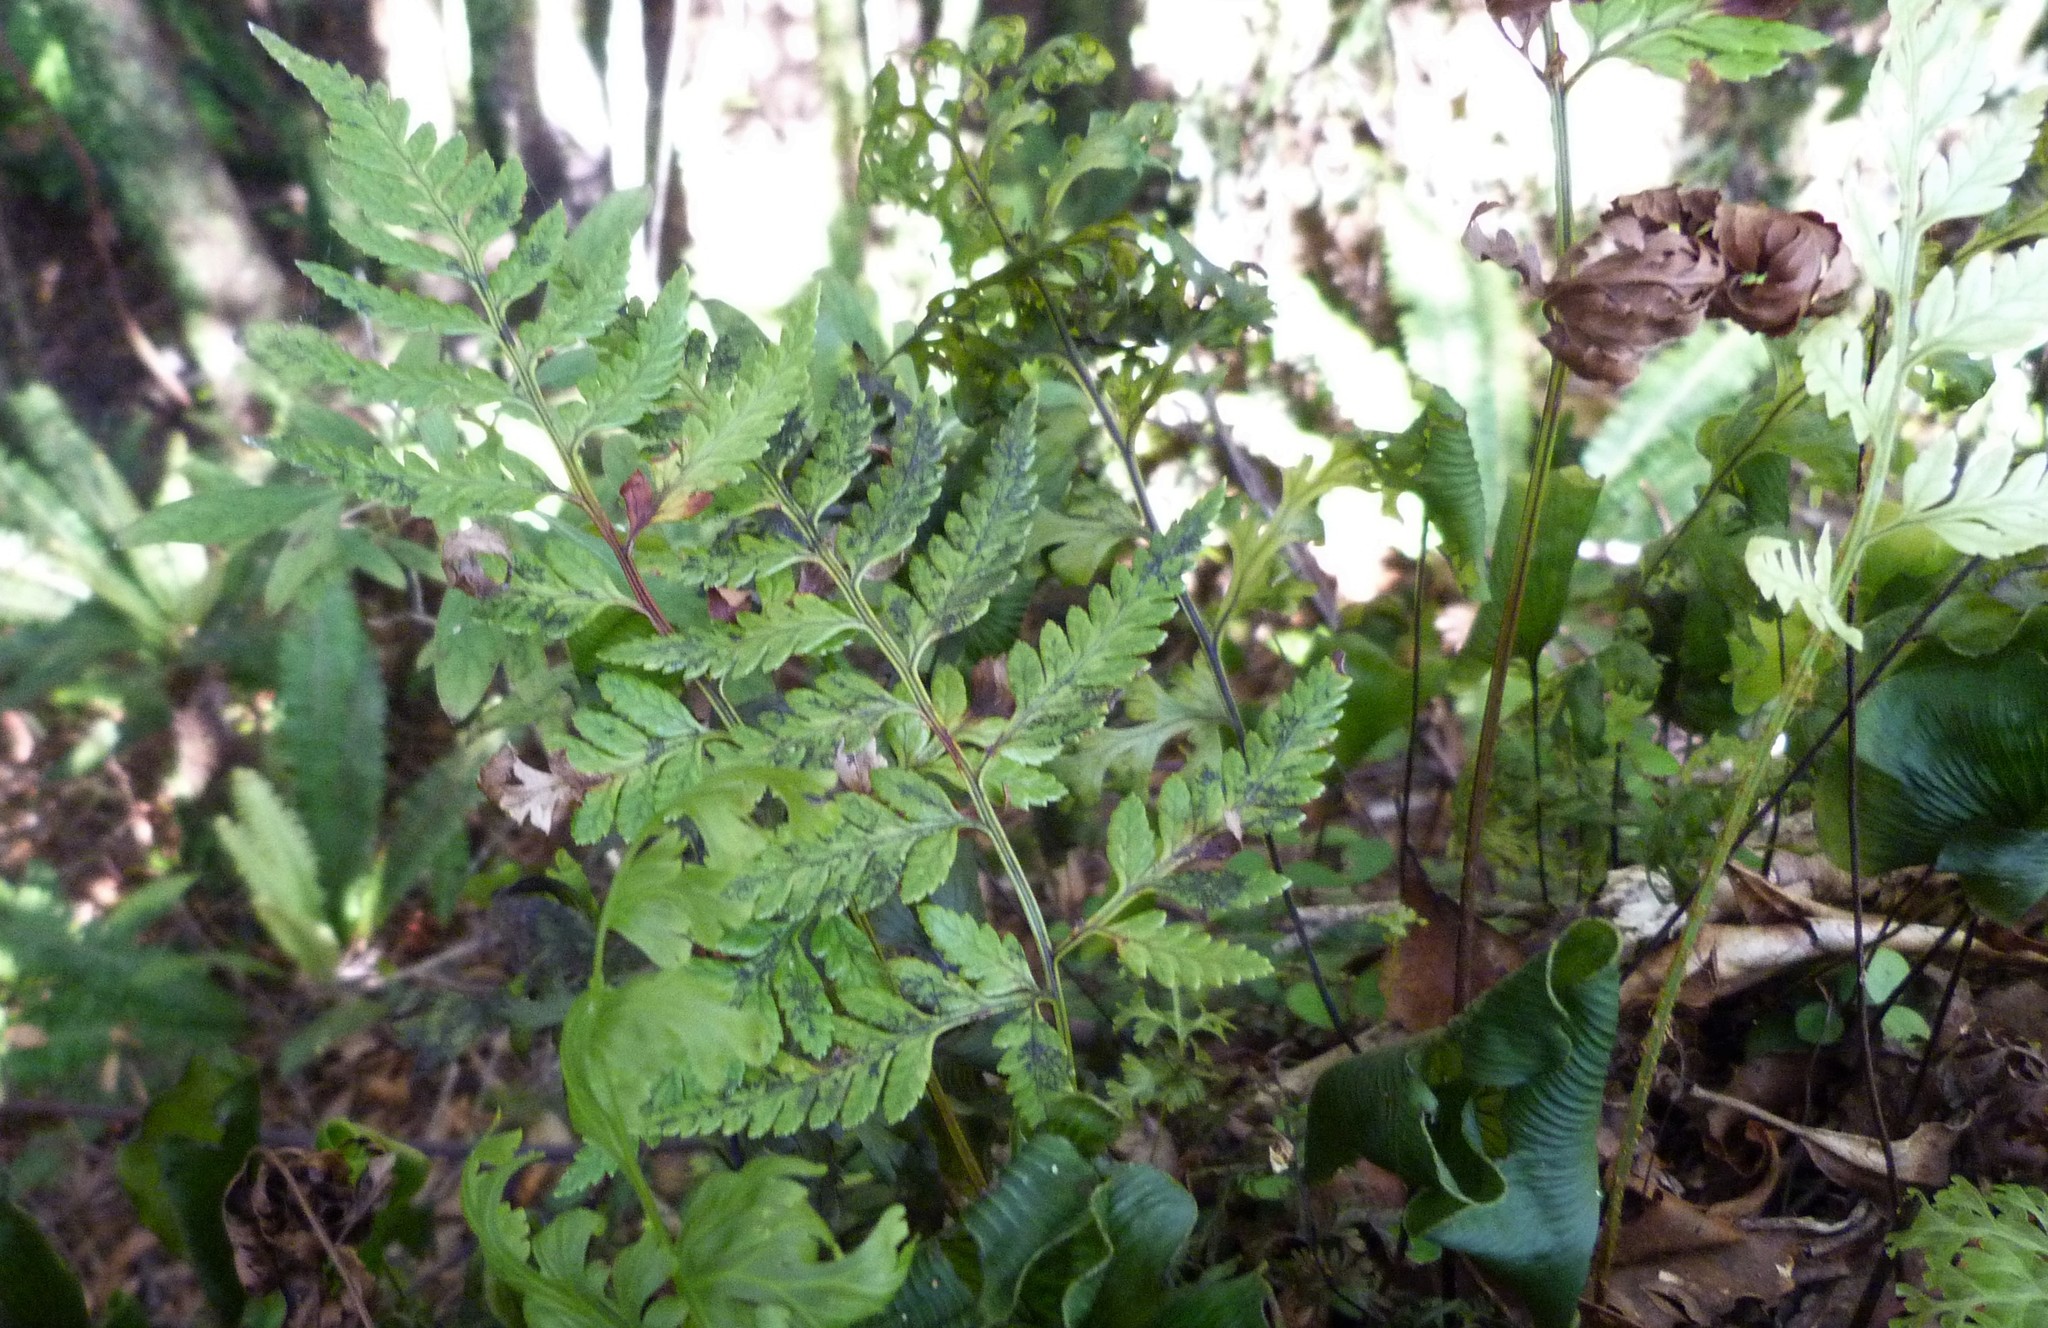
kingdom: Plantae
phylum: Tracheophyta
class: Polypodiopsida
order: Polypodiales
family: Dryopteridaceae
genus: Rumohra
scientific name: Rumohra adiantiformis
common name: Leather fern
